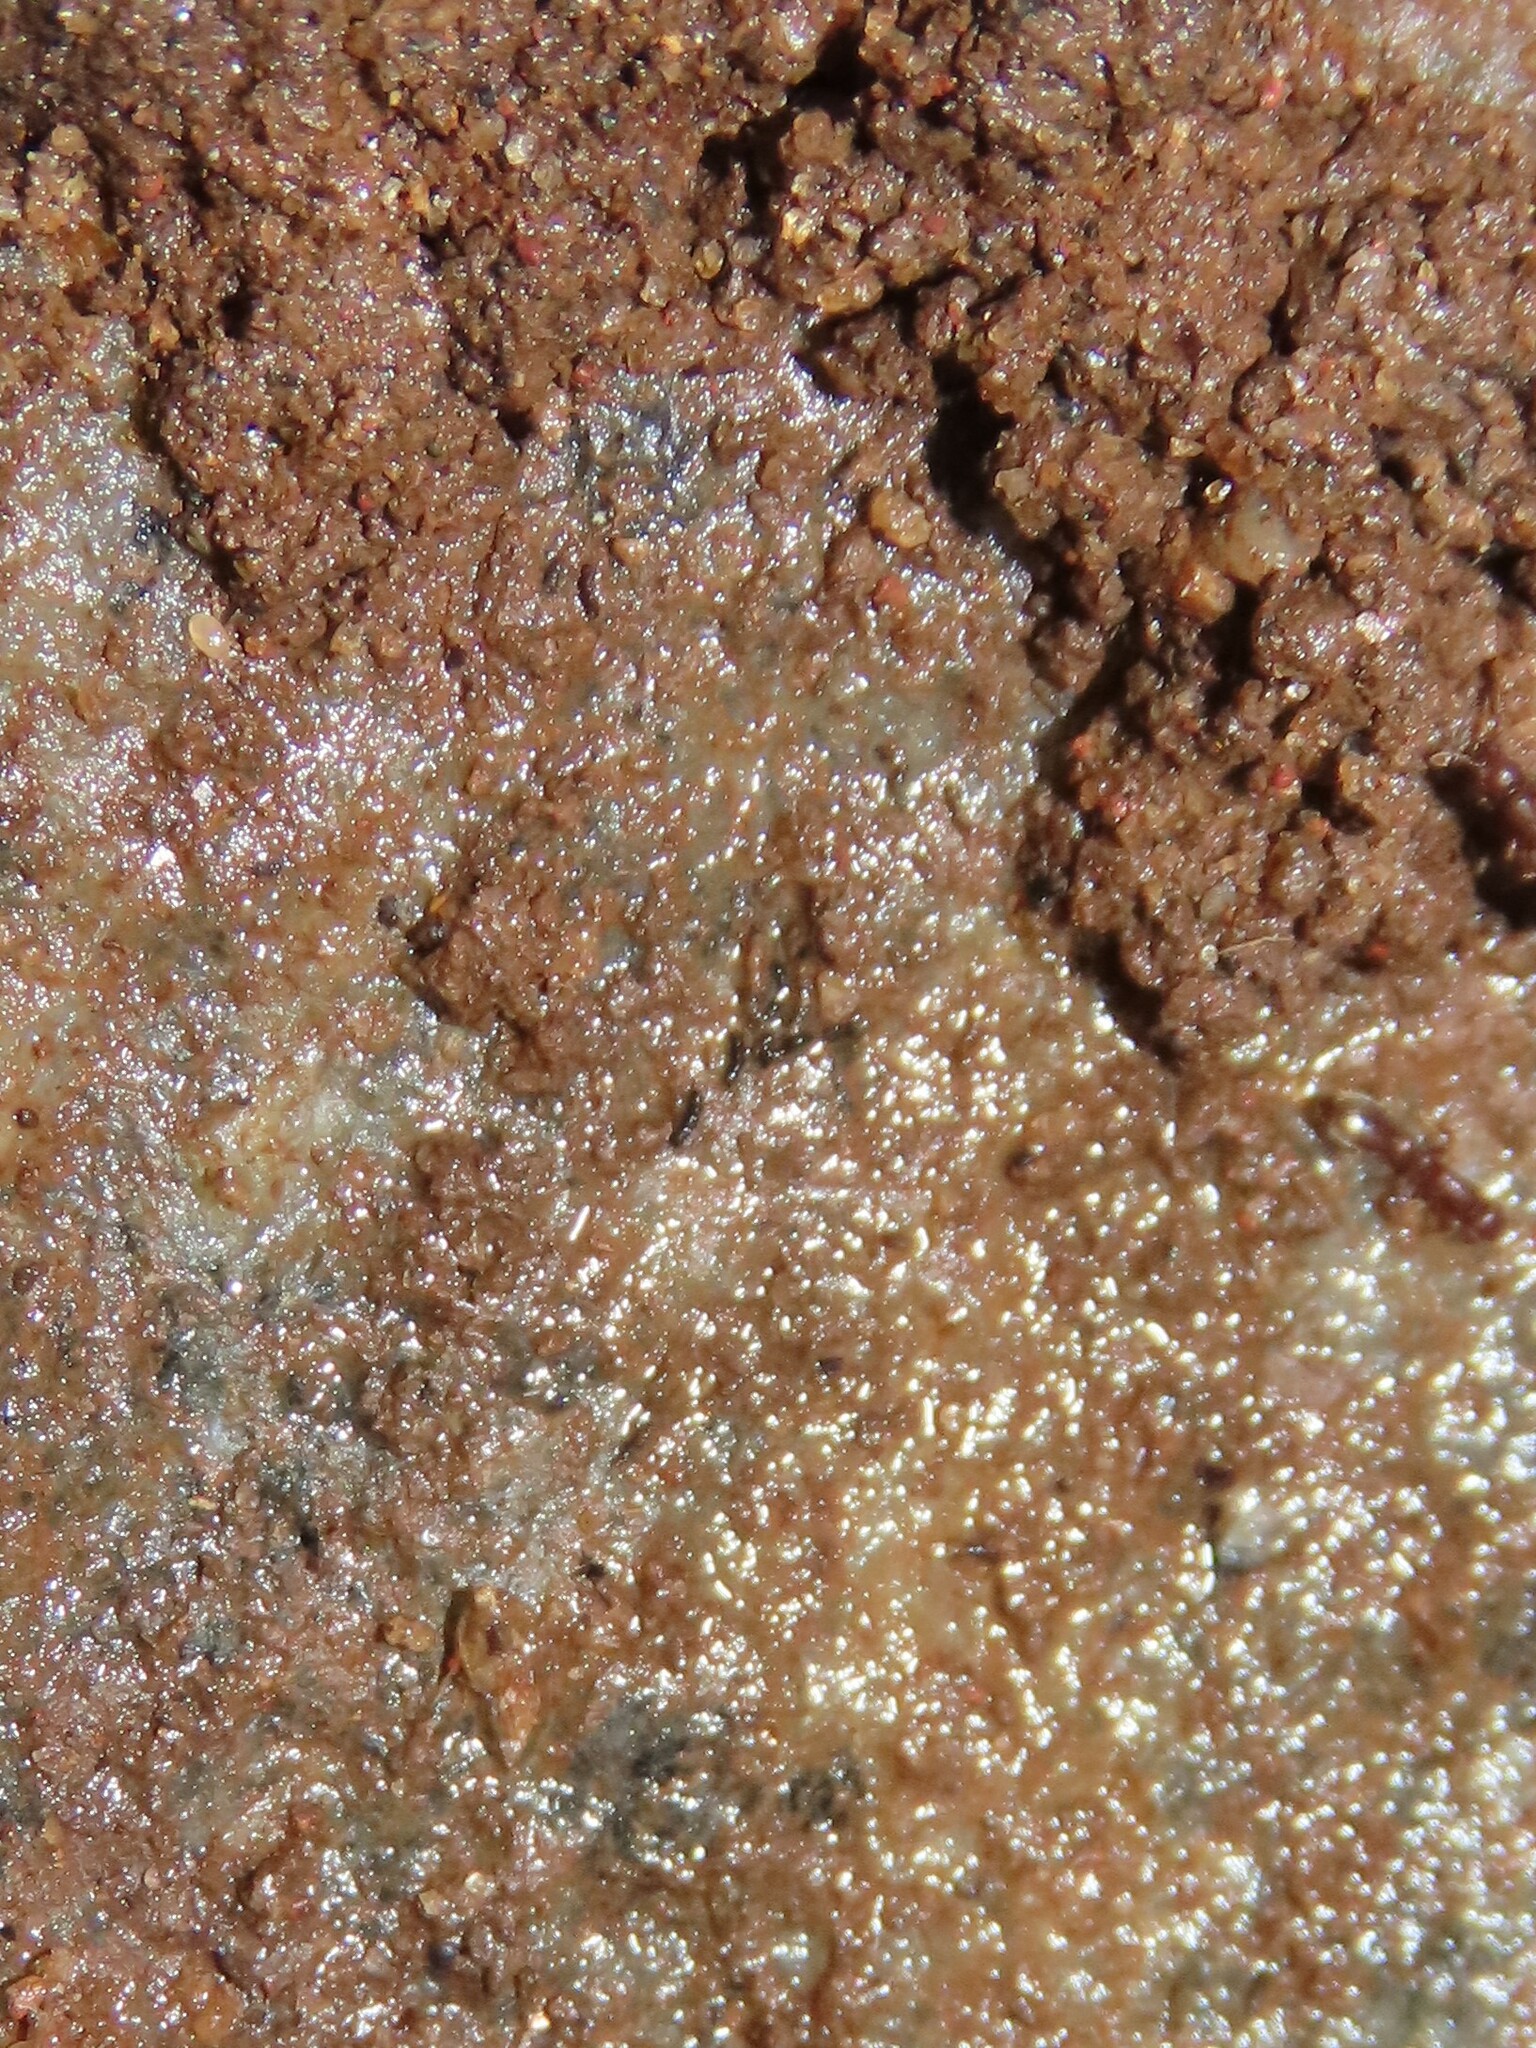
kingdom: Animalia
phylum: Arthropoda
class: Insecta
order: Hymenoptera
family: Formicidae
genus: Ooceraea
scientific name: Ooceraea biroi
